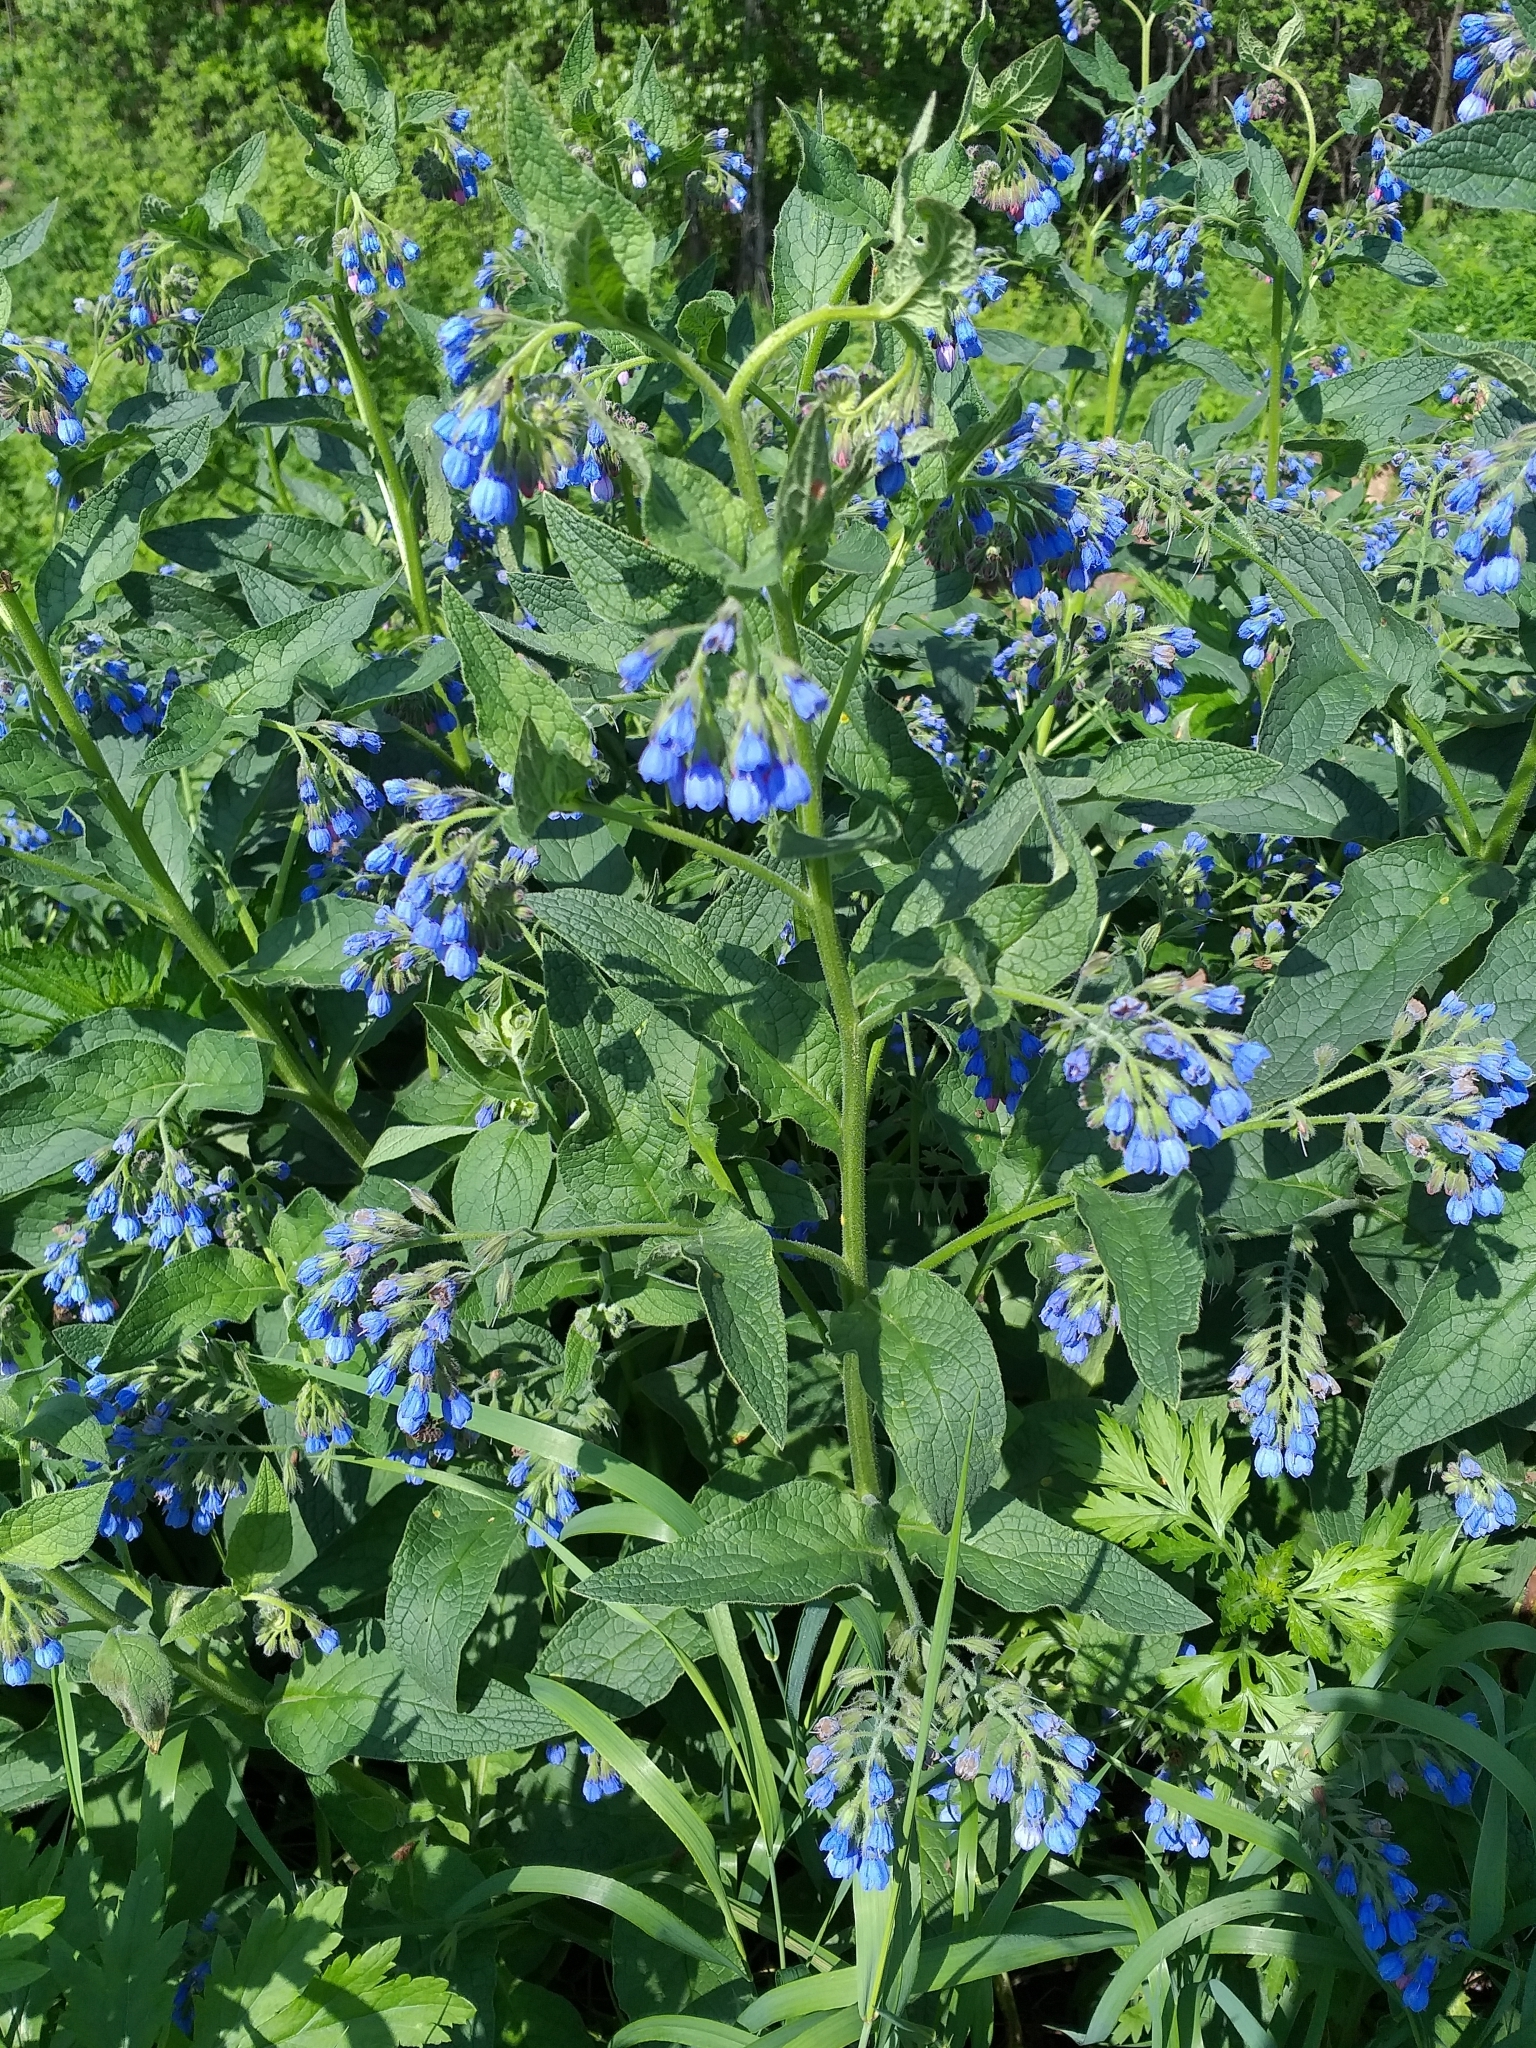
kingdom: Plantae
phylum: Tracheophyta
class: Magnoliopsida
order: Boraginales
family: Boraginaceae
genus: Symphytum
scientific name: Symphytum caucasicum
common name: Caucasian comfrey
